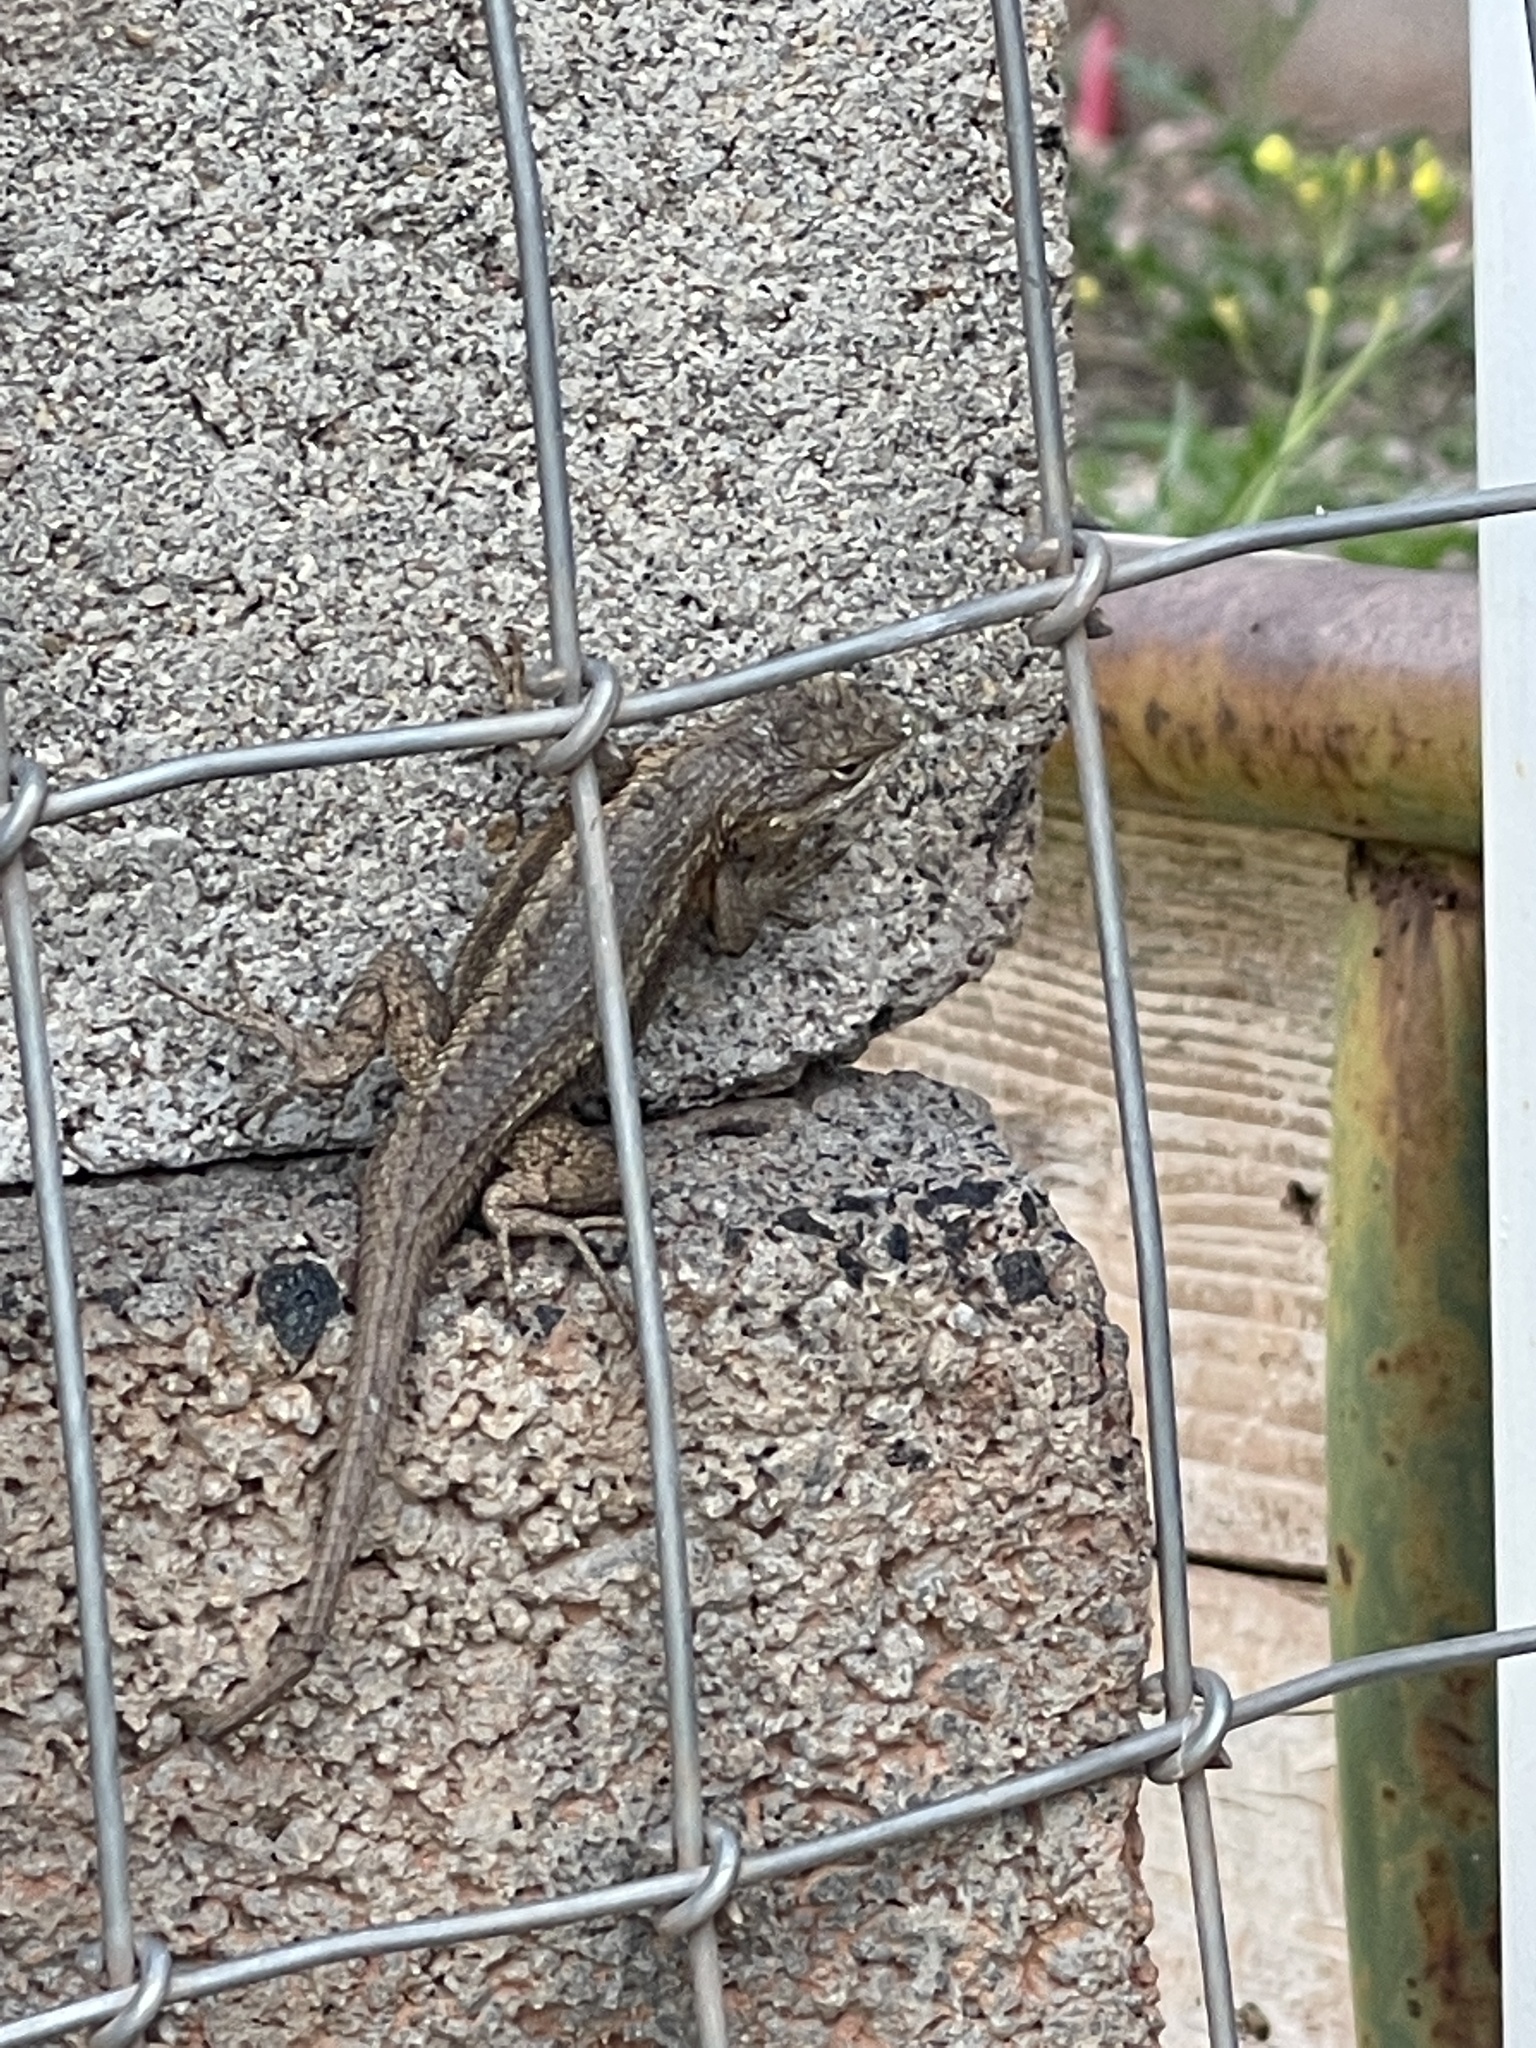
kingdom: Animalia
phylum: Chordata
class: Squamata
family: Phrynosomatidae
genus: Sceloporus
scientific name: Sceloporus cowlesi
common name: White sands prairie lizard
